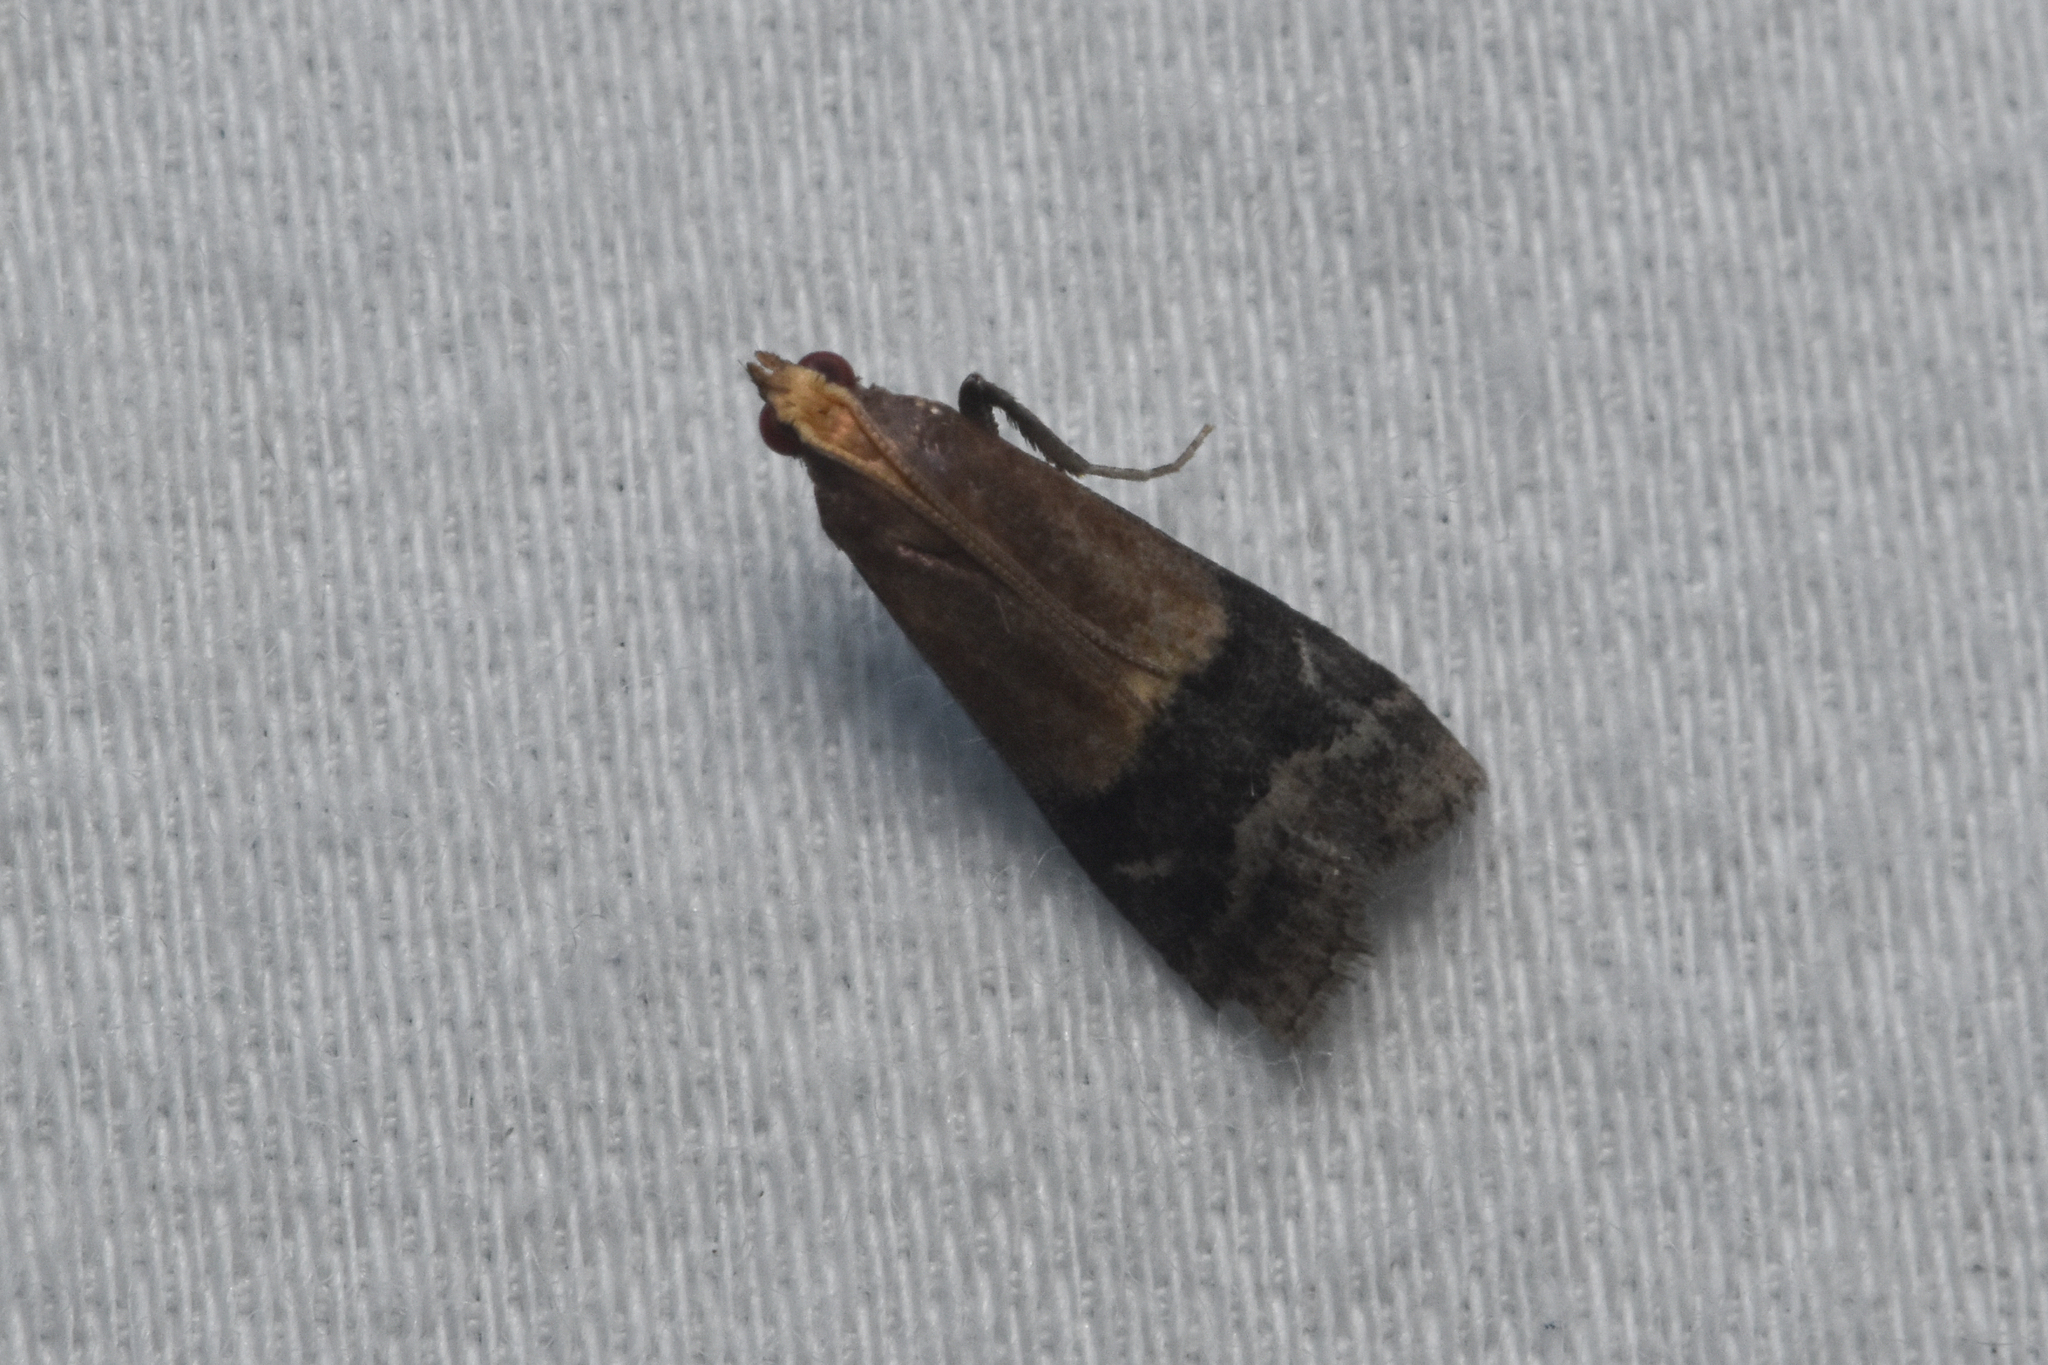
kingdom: Animalia
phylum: Arthropoda
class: Insecta
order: Lepidoptera
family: Pyralidae
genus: Eulogia
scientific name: Eulogia ochrifrontella
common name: Broad-banded eulogia moth
